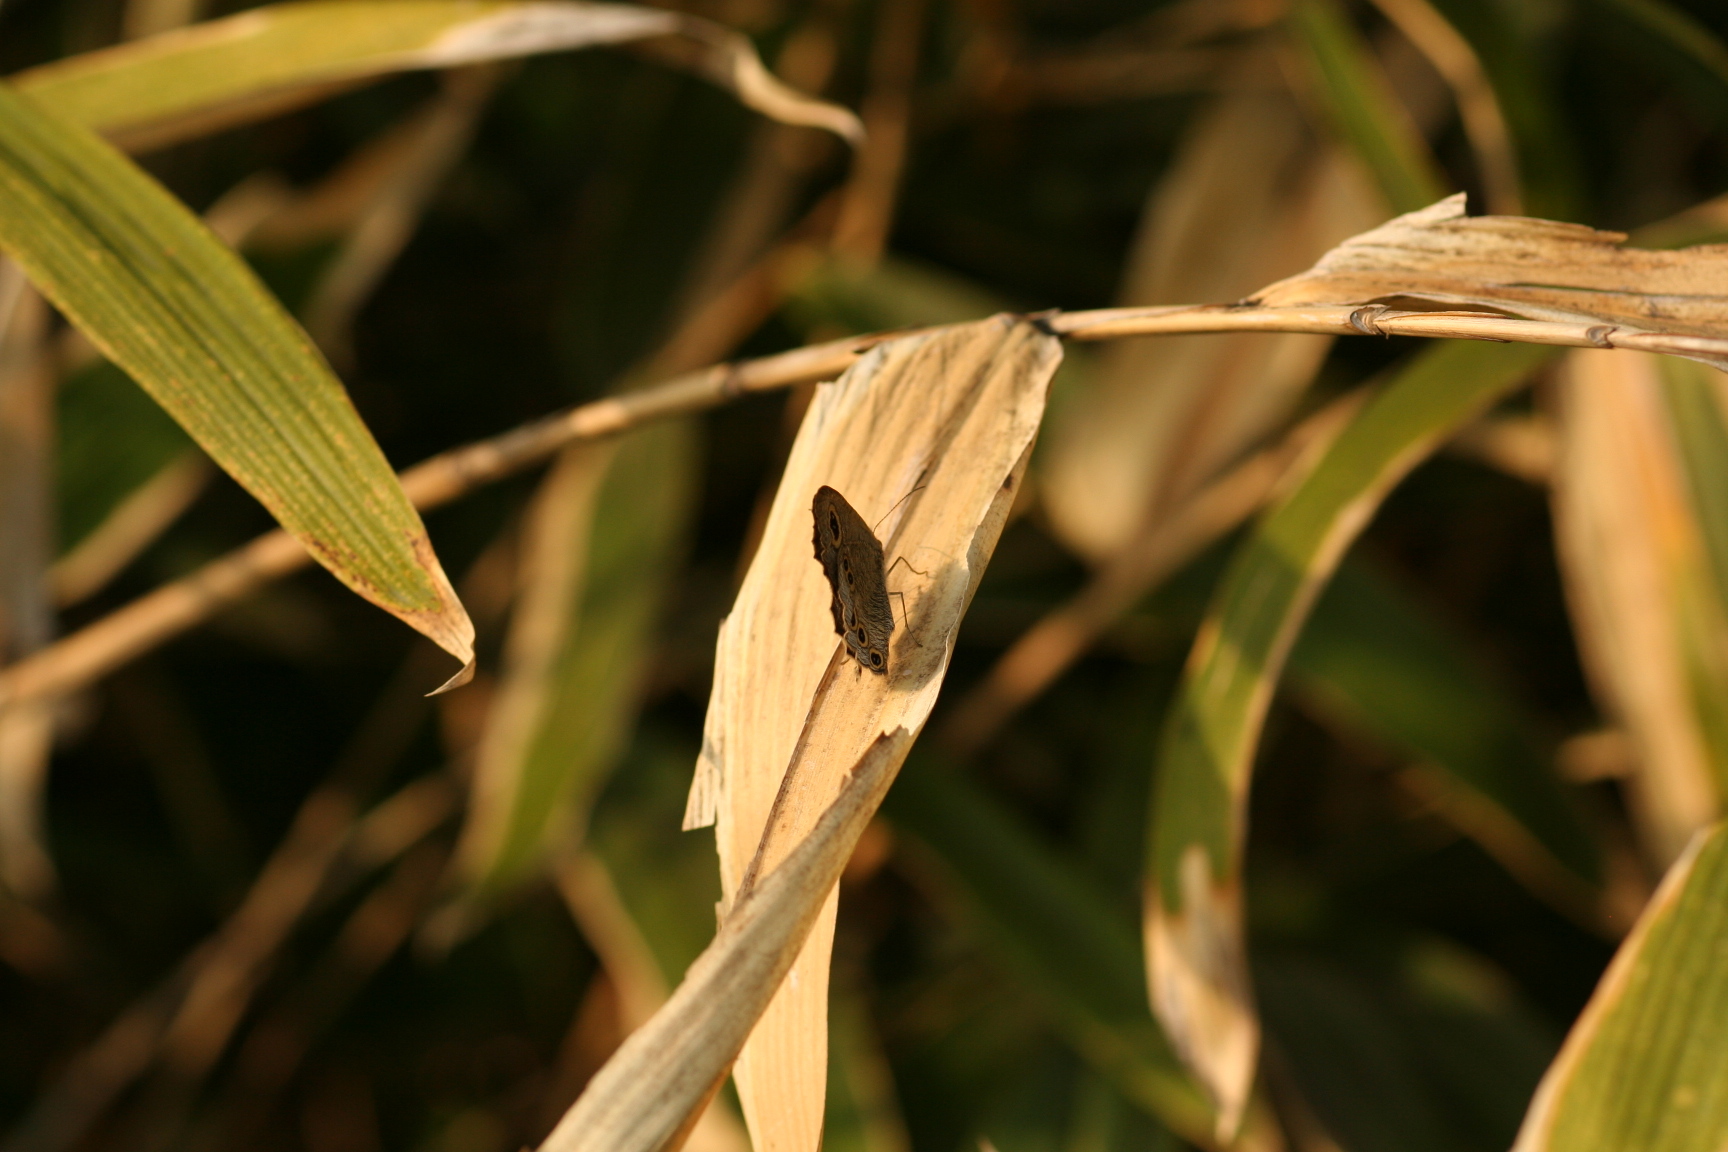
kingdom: Animalia
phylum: Arthropoda
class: Insecta
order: Lepidoptera
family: Nymphalidae
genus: Ypthima
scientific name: Ypthima argus
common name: Common fivering
